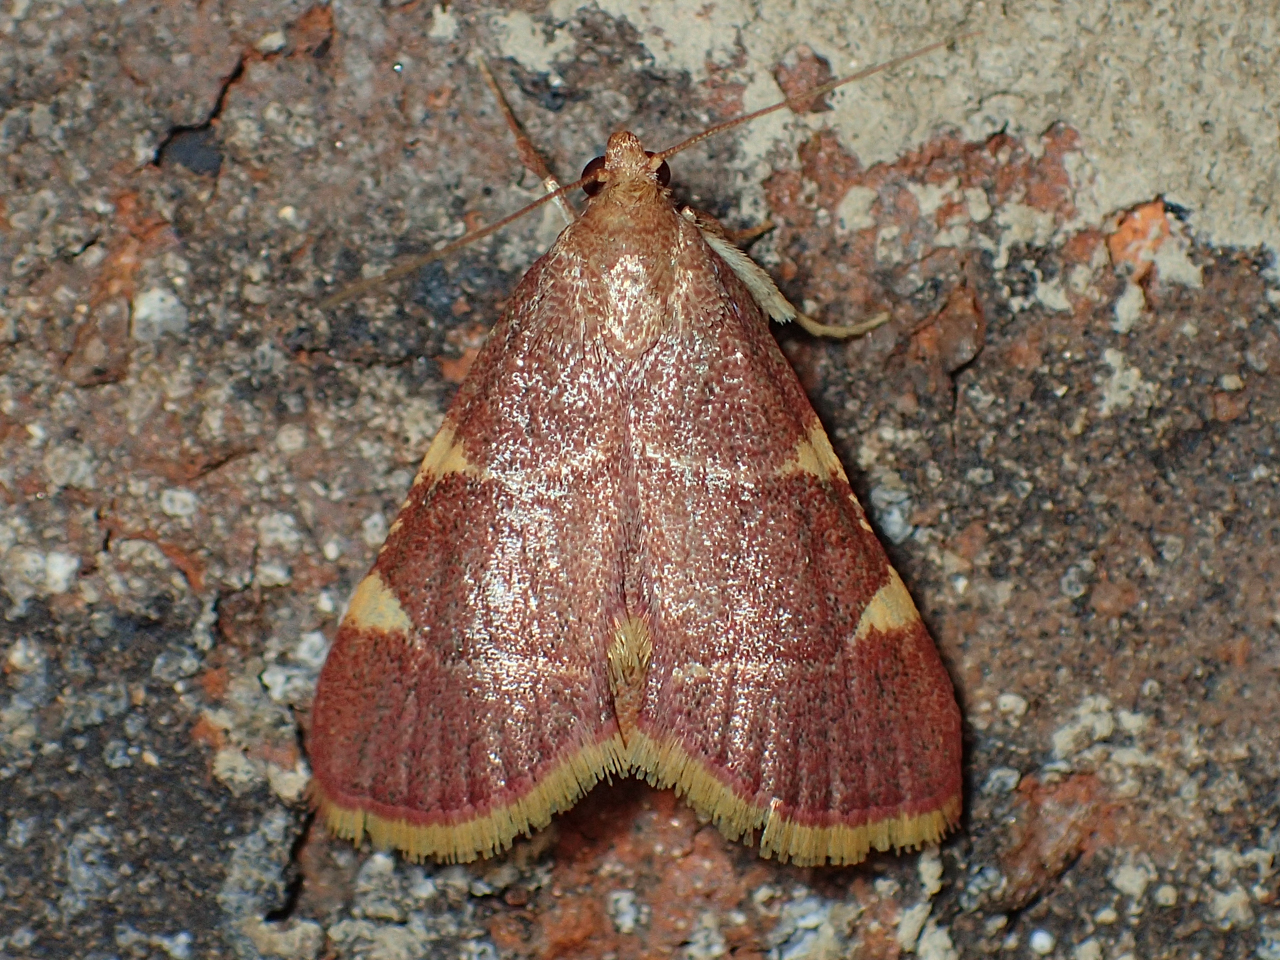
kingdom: Animalia
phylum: Arthropoda
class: Insecta
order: Lepidoptera
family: Pyralidae
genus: Hypsopygia
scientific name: Hypsopygia olinalis
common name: Yellow-fringed dolichomia moth
